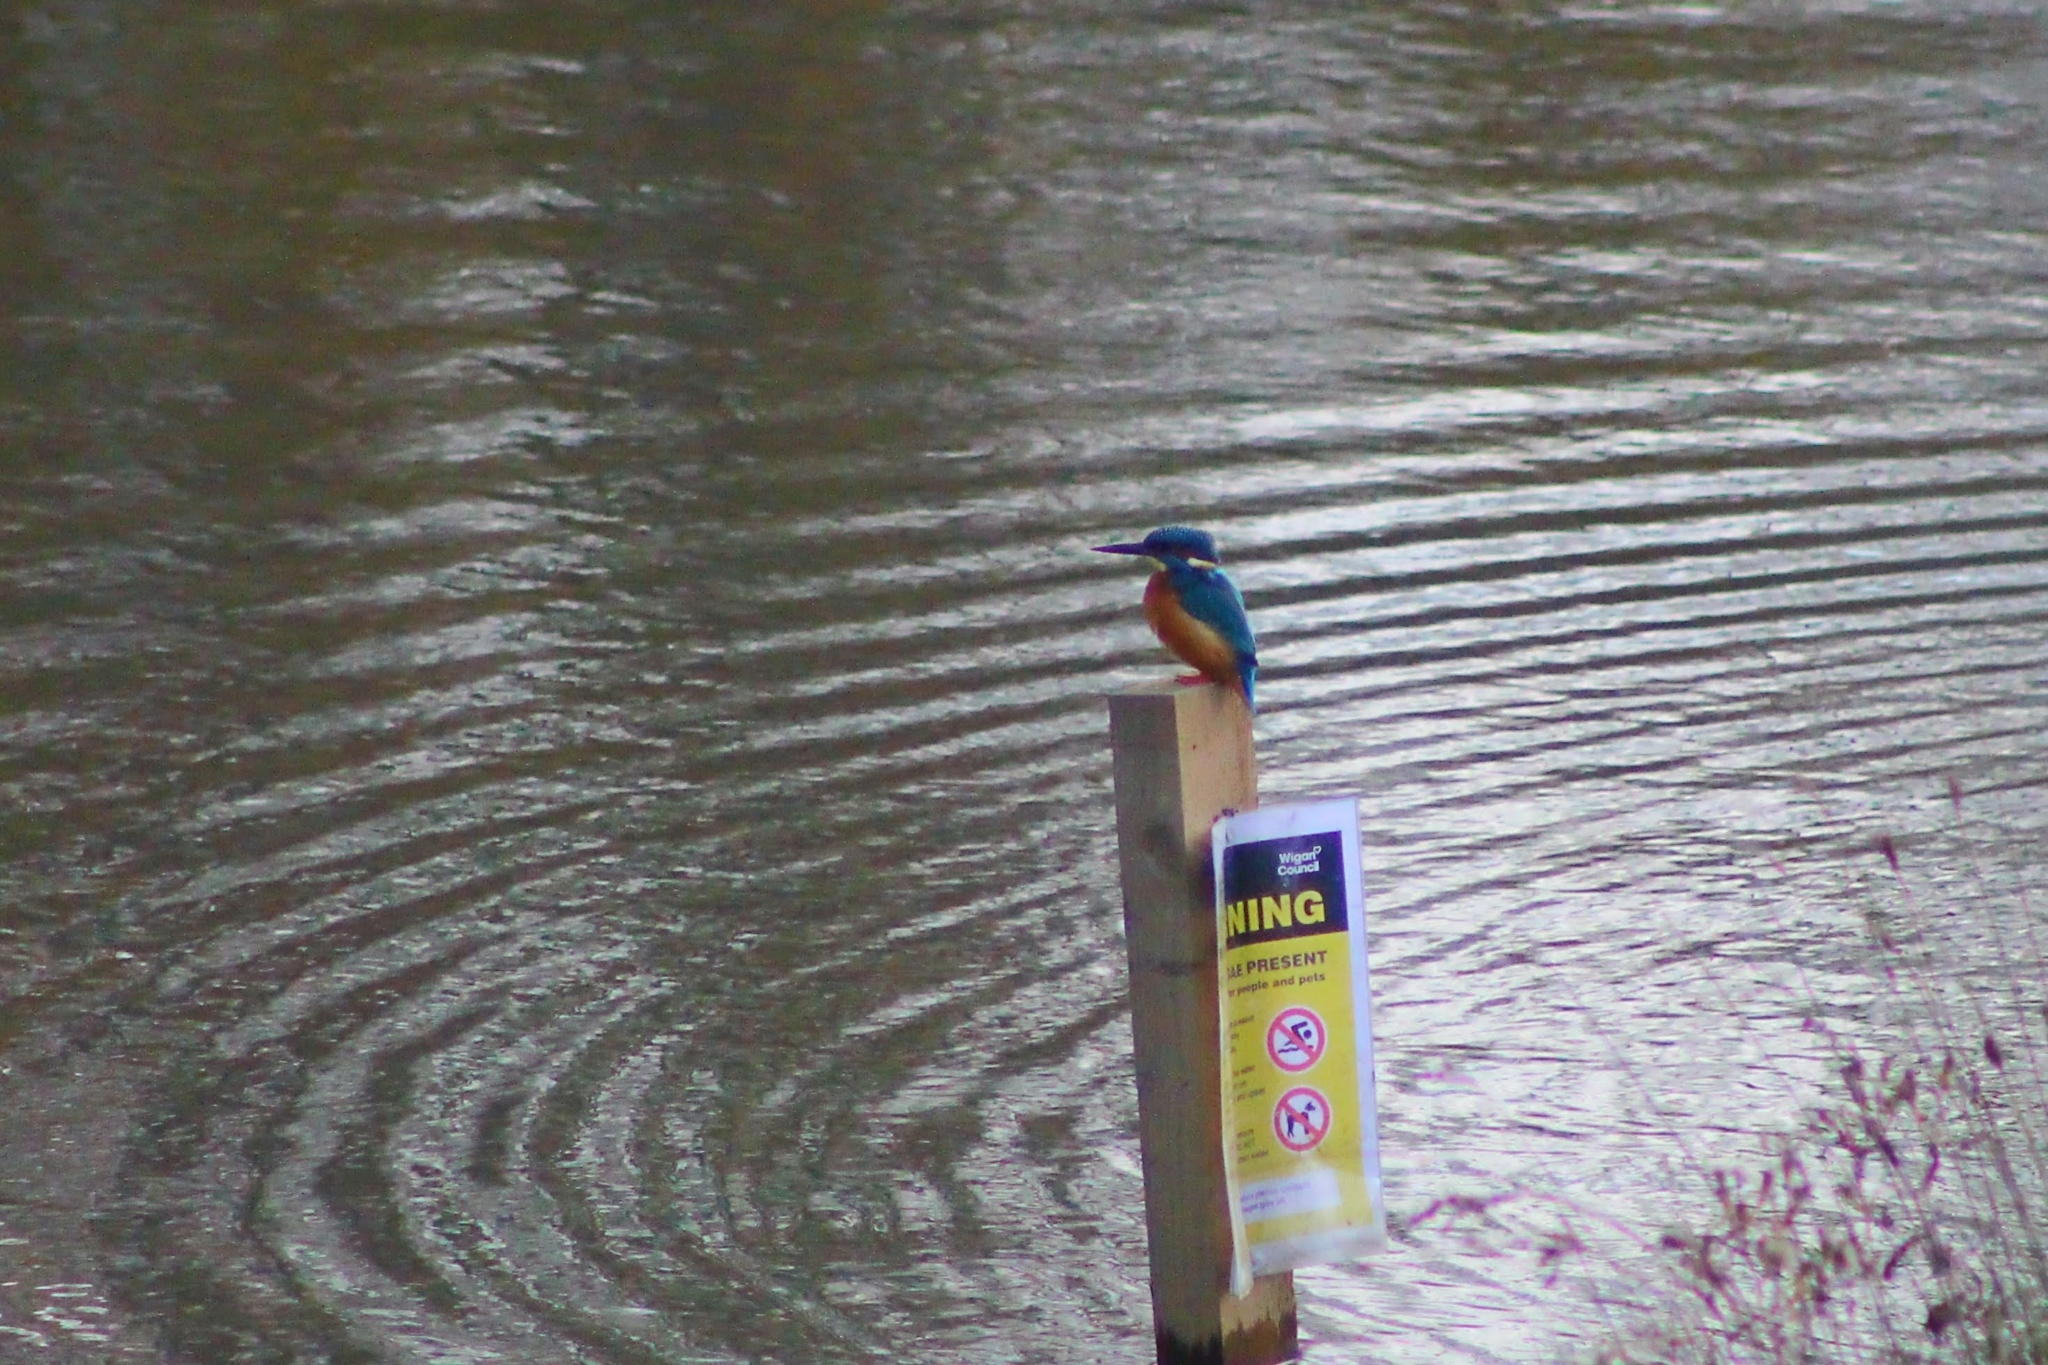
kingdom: Animalia
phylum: Chordata
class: Aves
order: Coraciiformes
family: Alcedinidae
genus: Alcedo
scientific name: Alcedo atthis
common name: Common kingfisher
